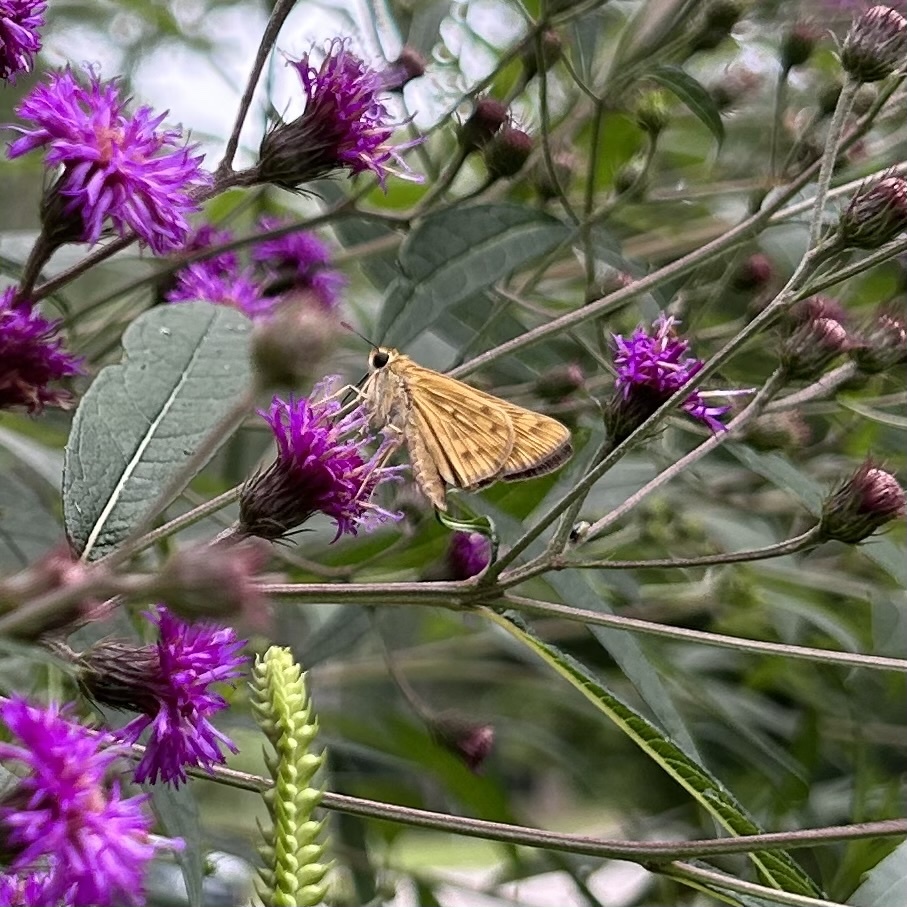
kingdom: Animalia
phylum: Arthropoda
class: Insecta
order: Lepidoptera
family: Hesperiidae
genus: Hylephila
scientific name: Hylephila phyleus
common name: Fiery skipper
